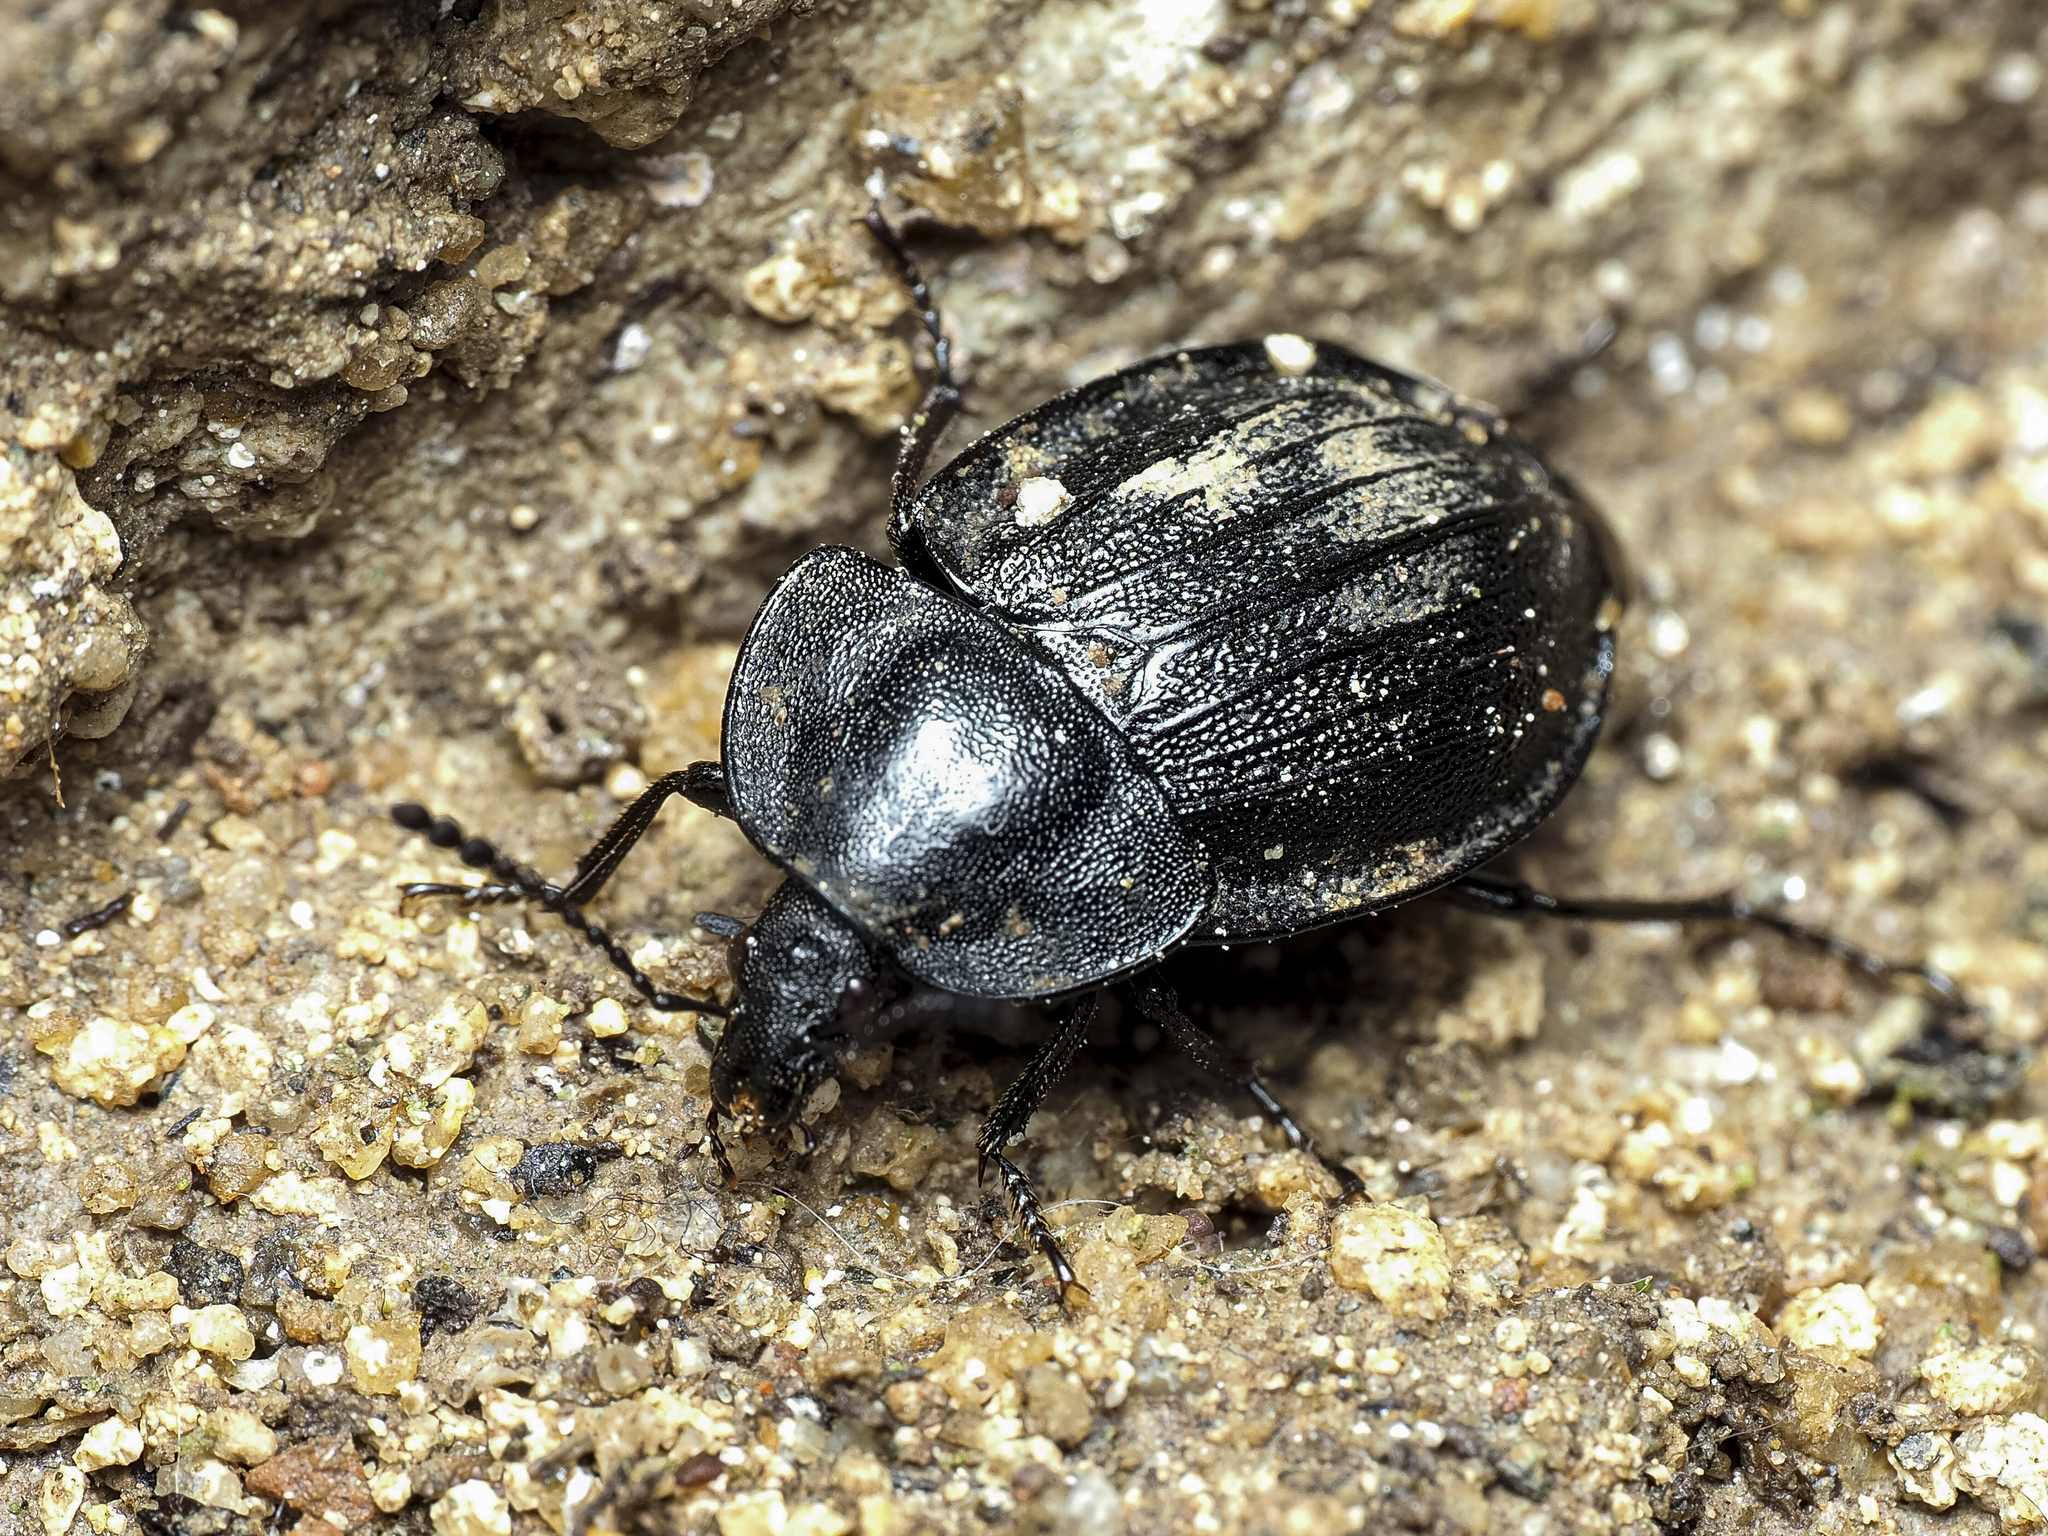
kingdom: Animalia
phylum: Arthropoda
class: Insecta
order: Coleoptera
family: Staphylinidae
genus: Silpha
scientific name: Silpha atrata
